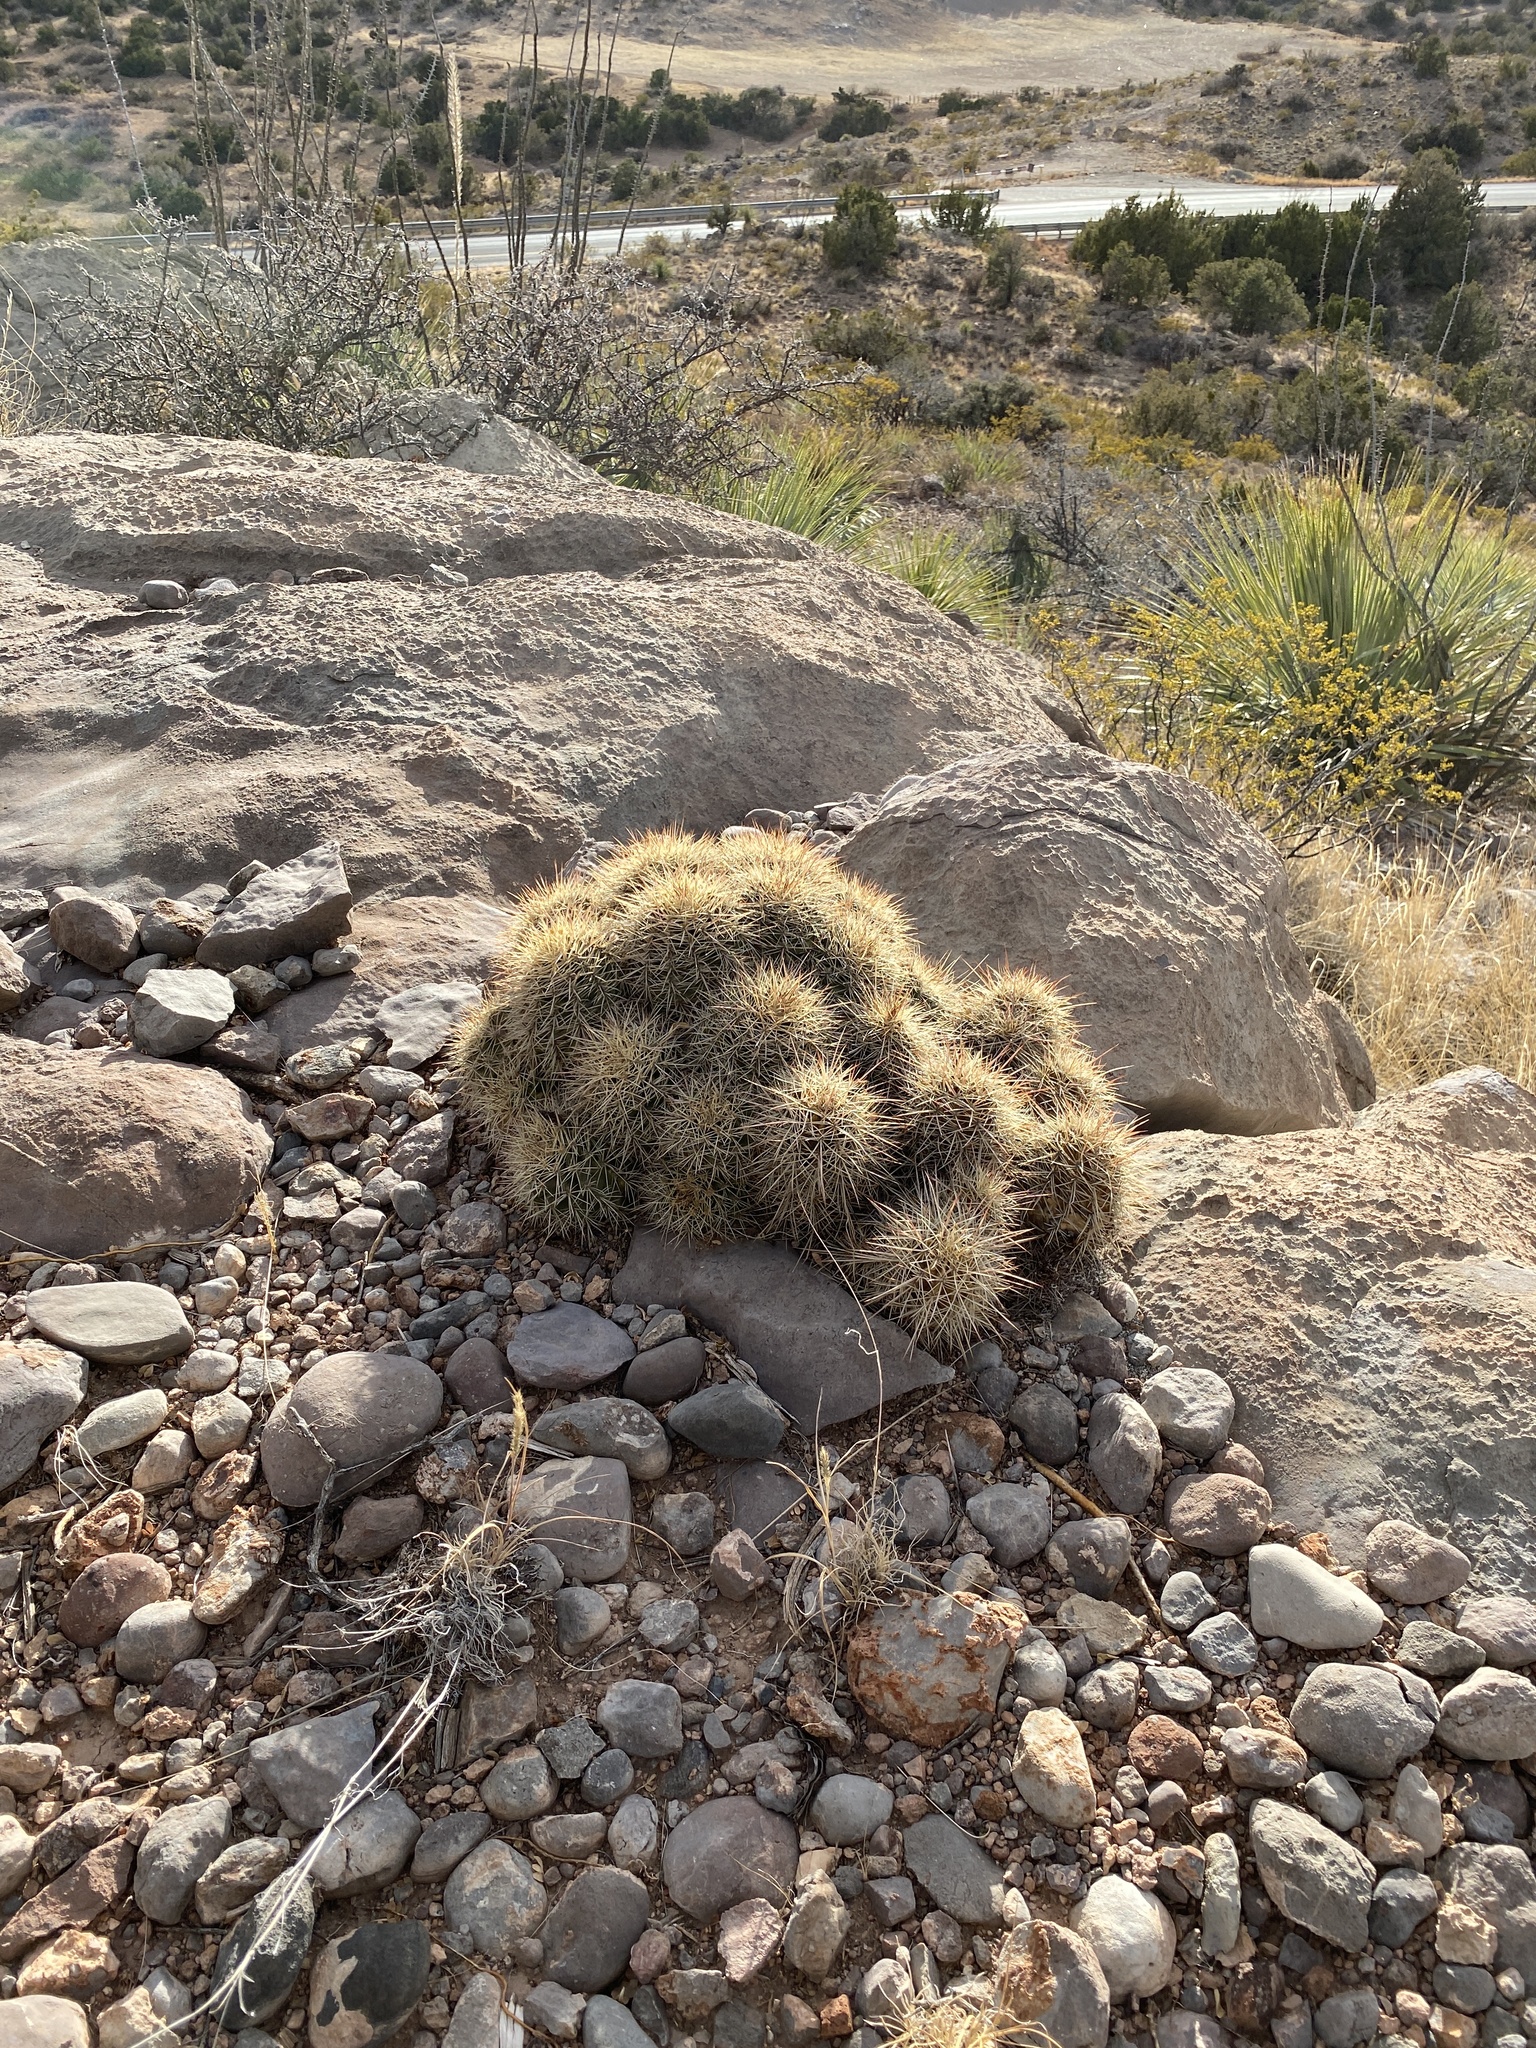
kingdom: Plantae
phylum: Tracheophyta
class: Magnoliopsida
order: Caryophyllales
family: Cactaceae
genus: Echinocereus
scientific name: Echinocereus coccineus
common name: Scarlet hedgehog cactus
